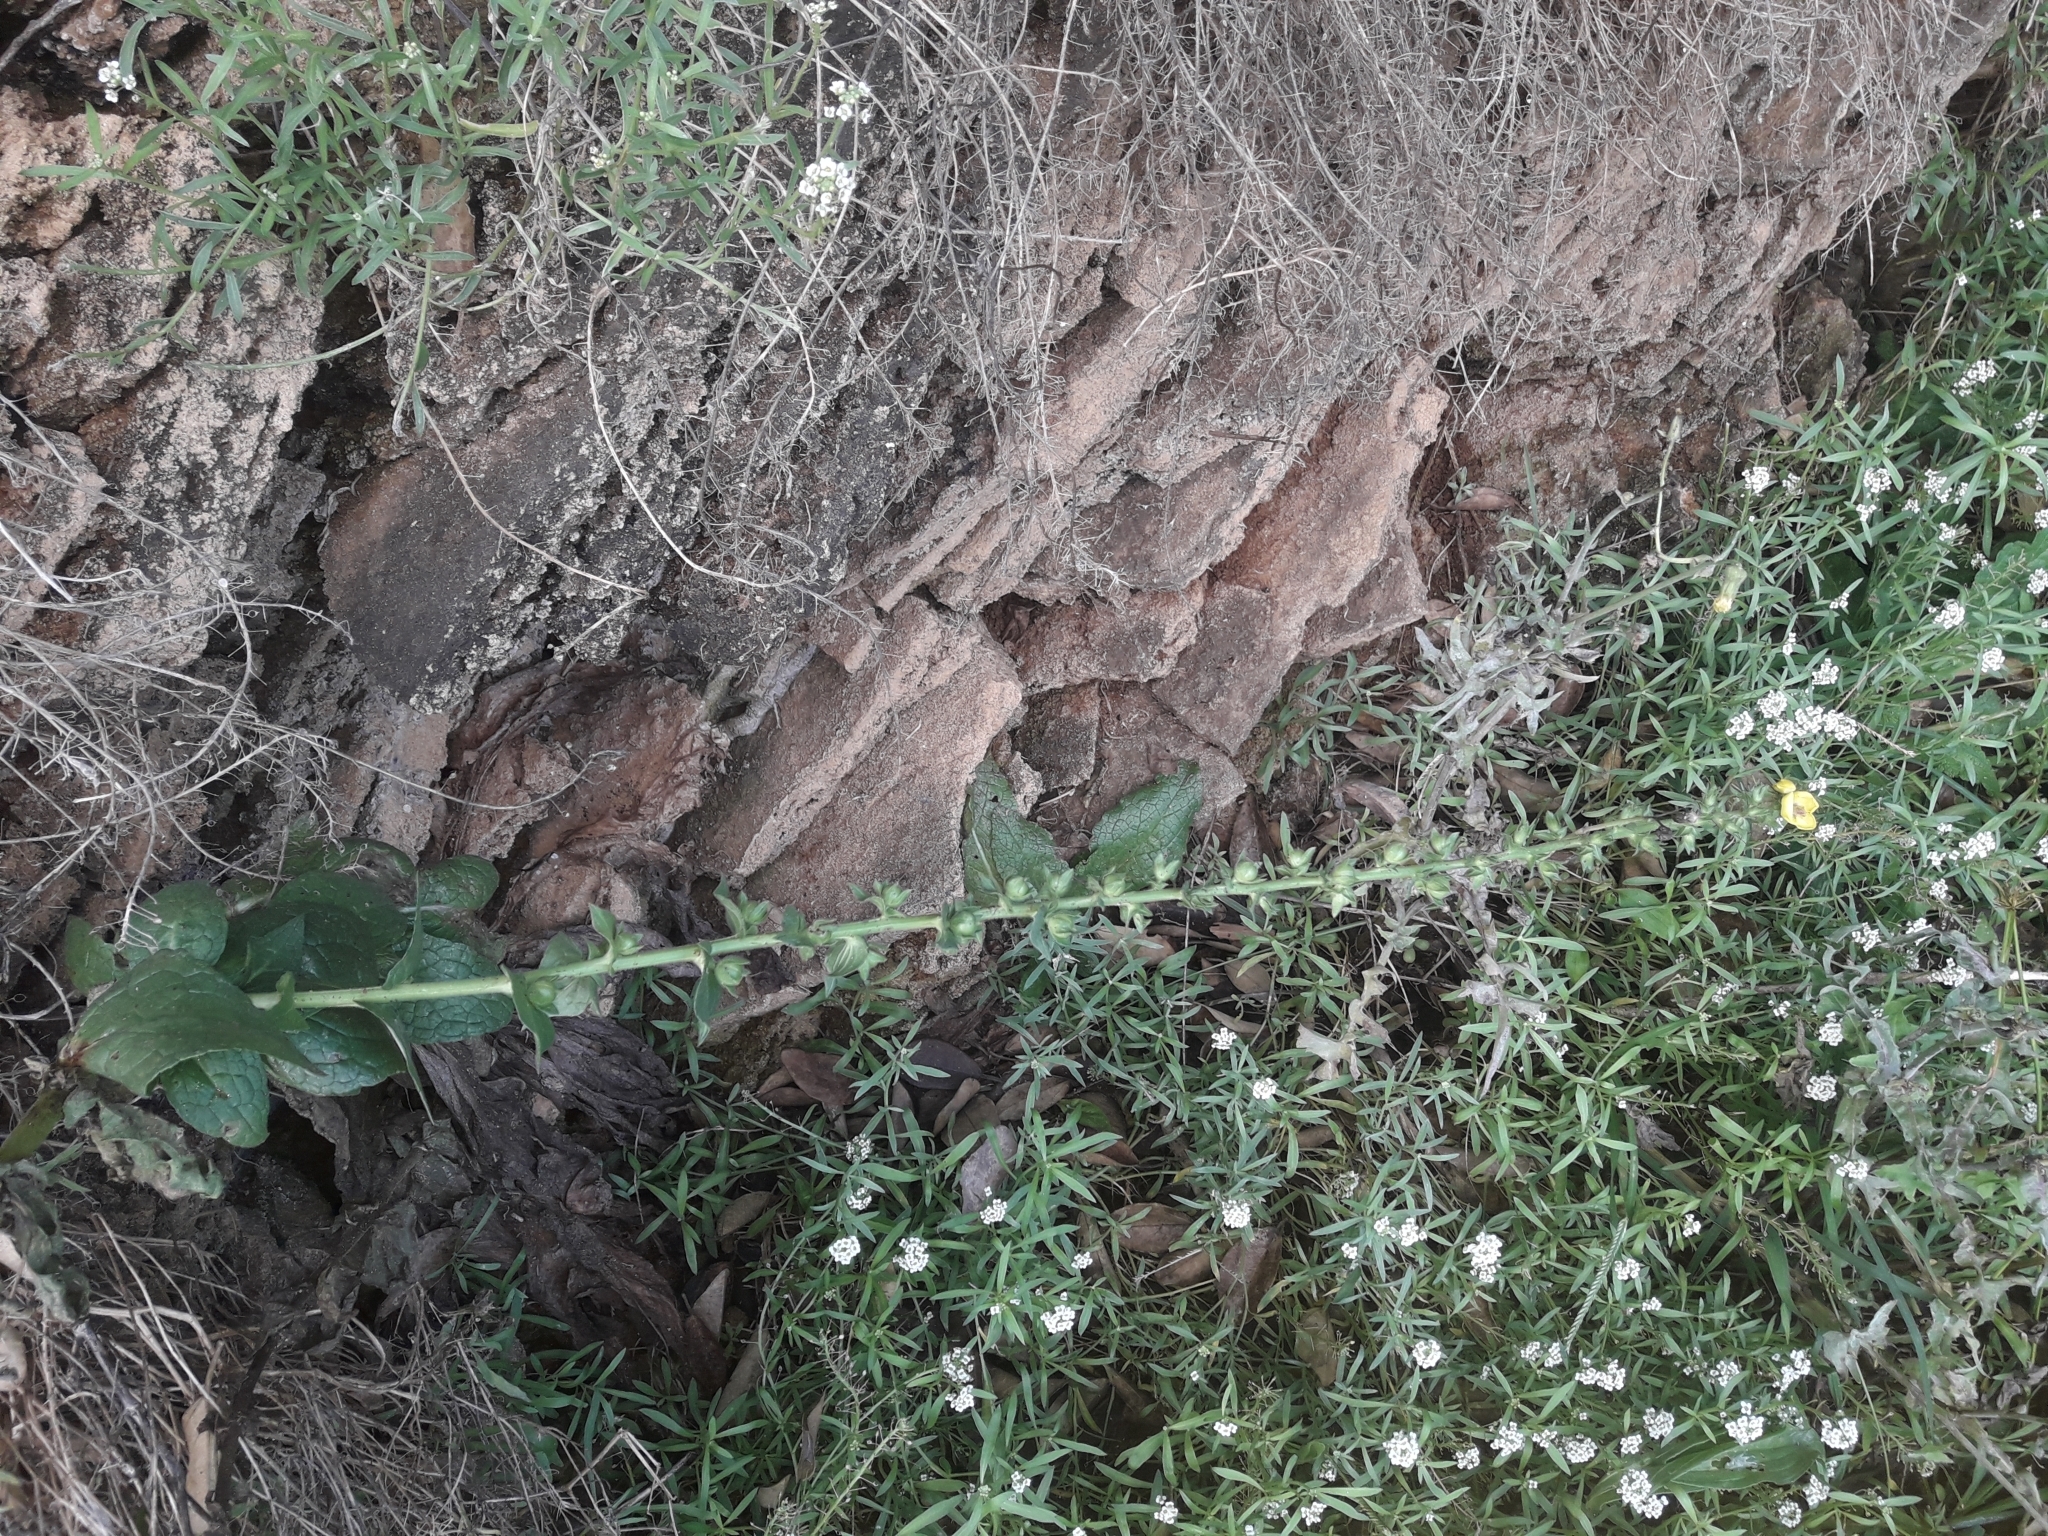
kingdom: Plantae
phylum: Tracheophyta
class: Magnoliopsida
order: Lamiales
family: Scrophulariaceae
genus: Verbascum
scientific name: Verbascum virgatum
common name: Twiggy mullein
